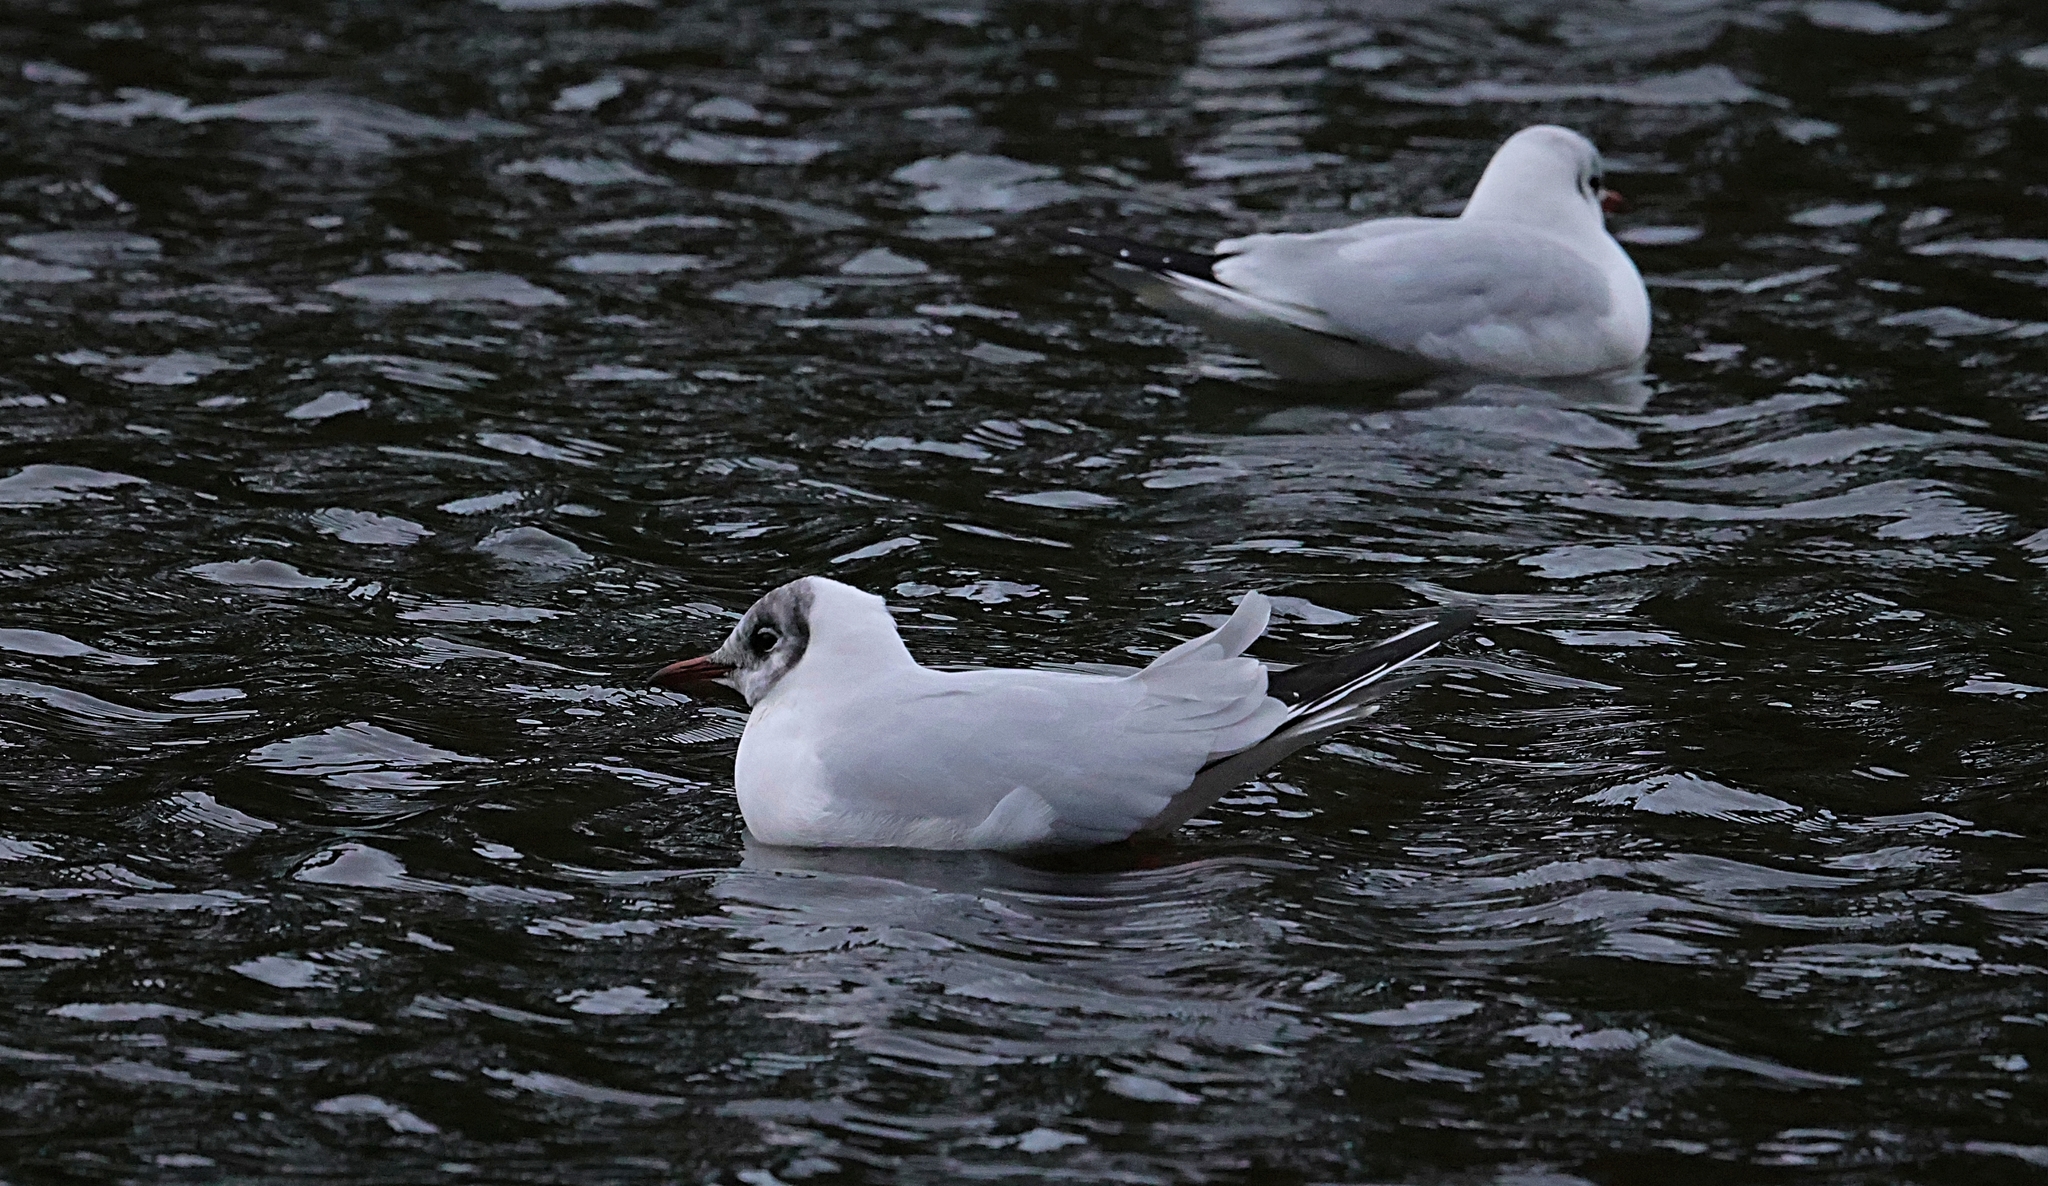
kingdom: Animalia
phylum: Chordata
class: Aves
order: Charadriiformes
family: Laridae
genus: Chroicocephalus
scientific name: Chroicocephalus ridibundus
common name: Black-headed gull
